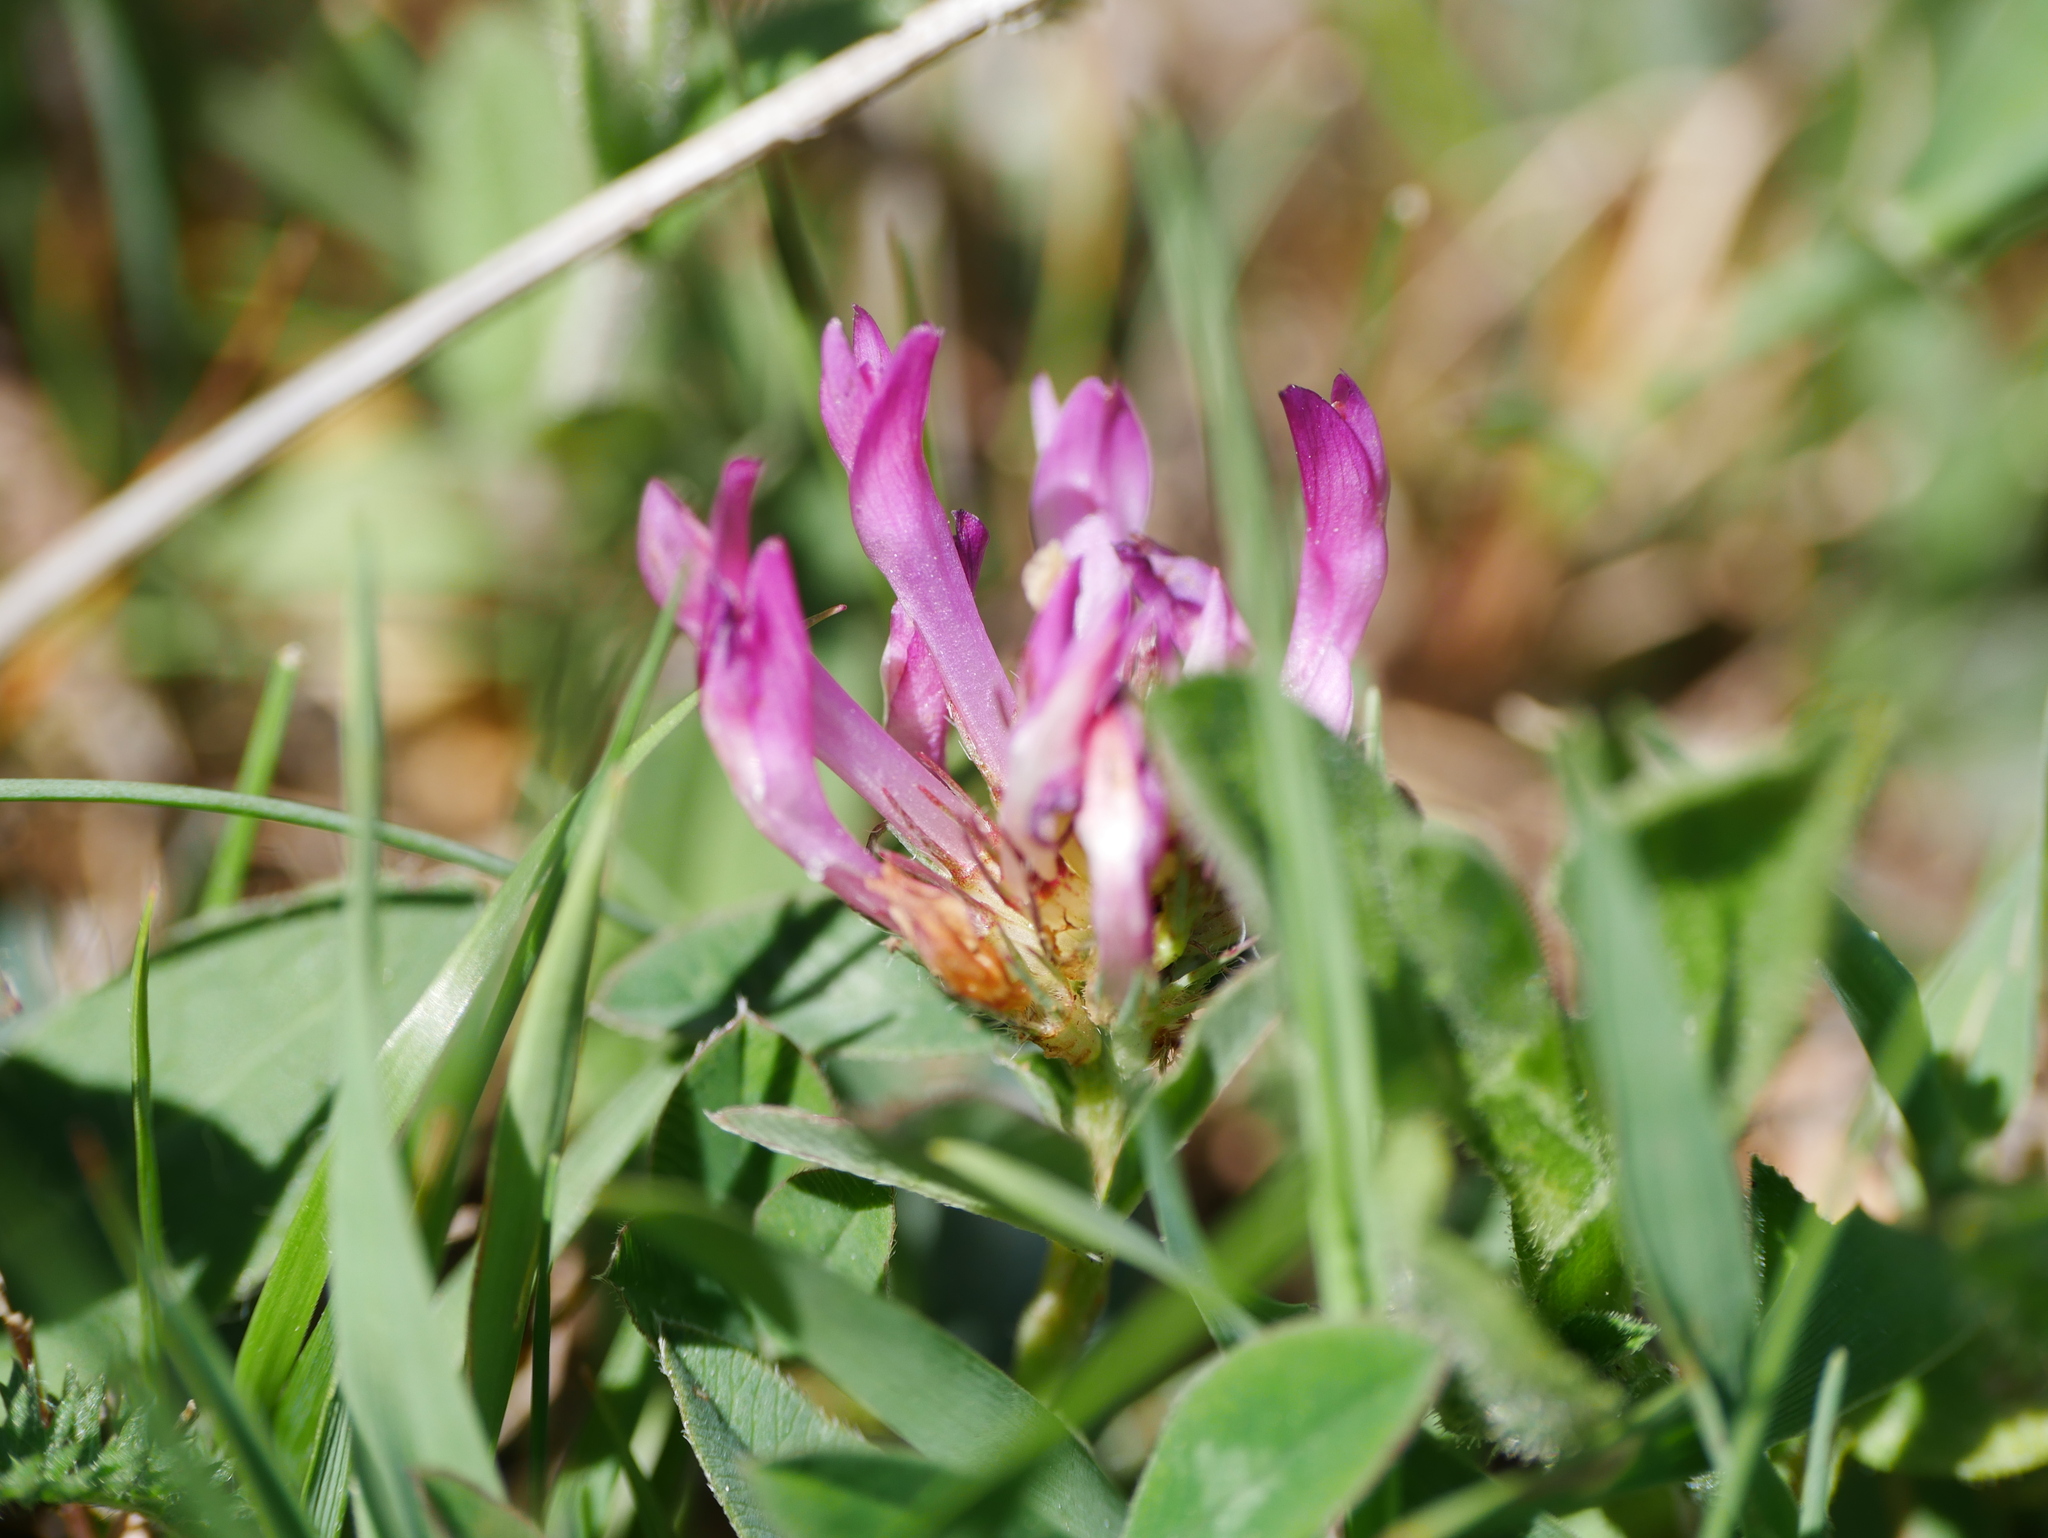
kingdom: Plantae
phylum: Tracheophyta
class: Magnoliopsida
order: Fabales
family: Fabaceae
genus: Trifolium
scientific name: Trifolium medium
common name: Zigzag clover
